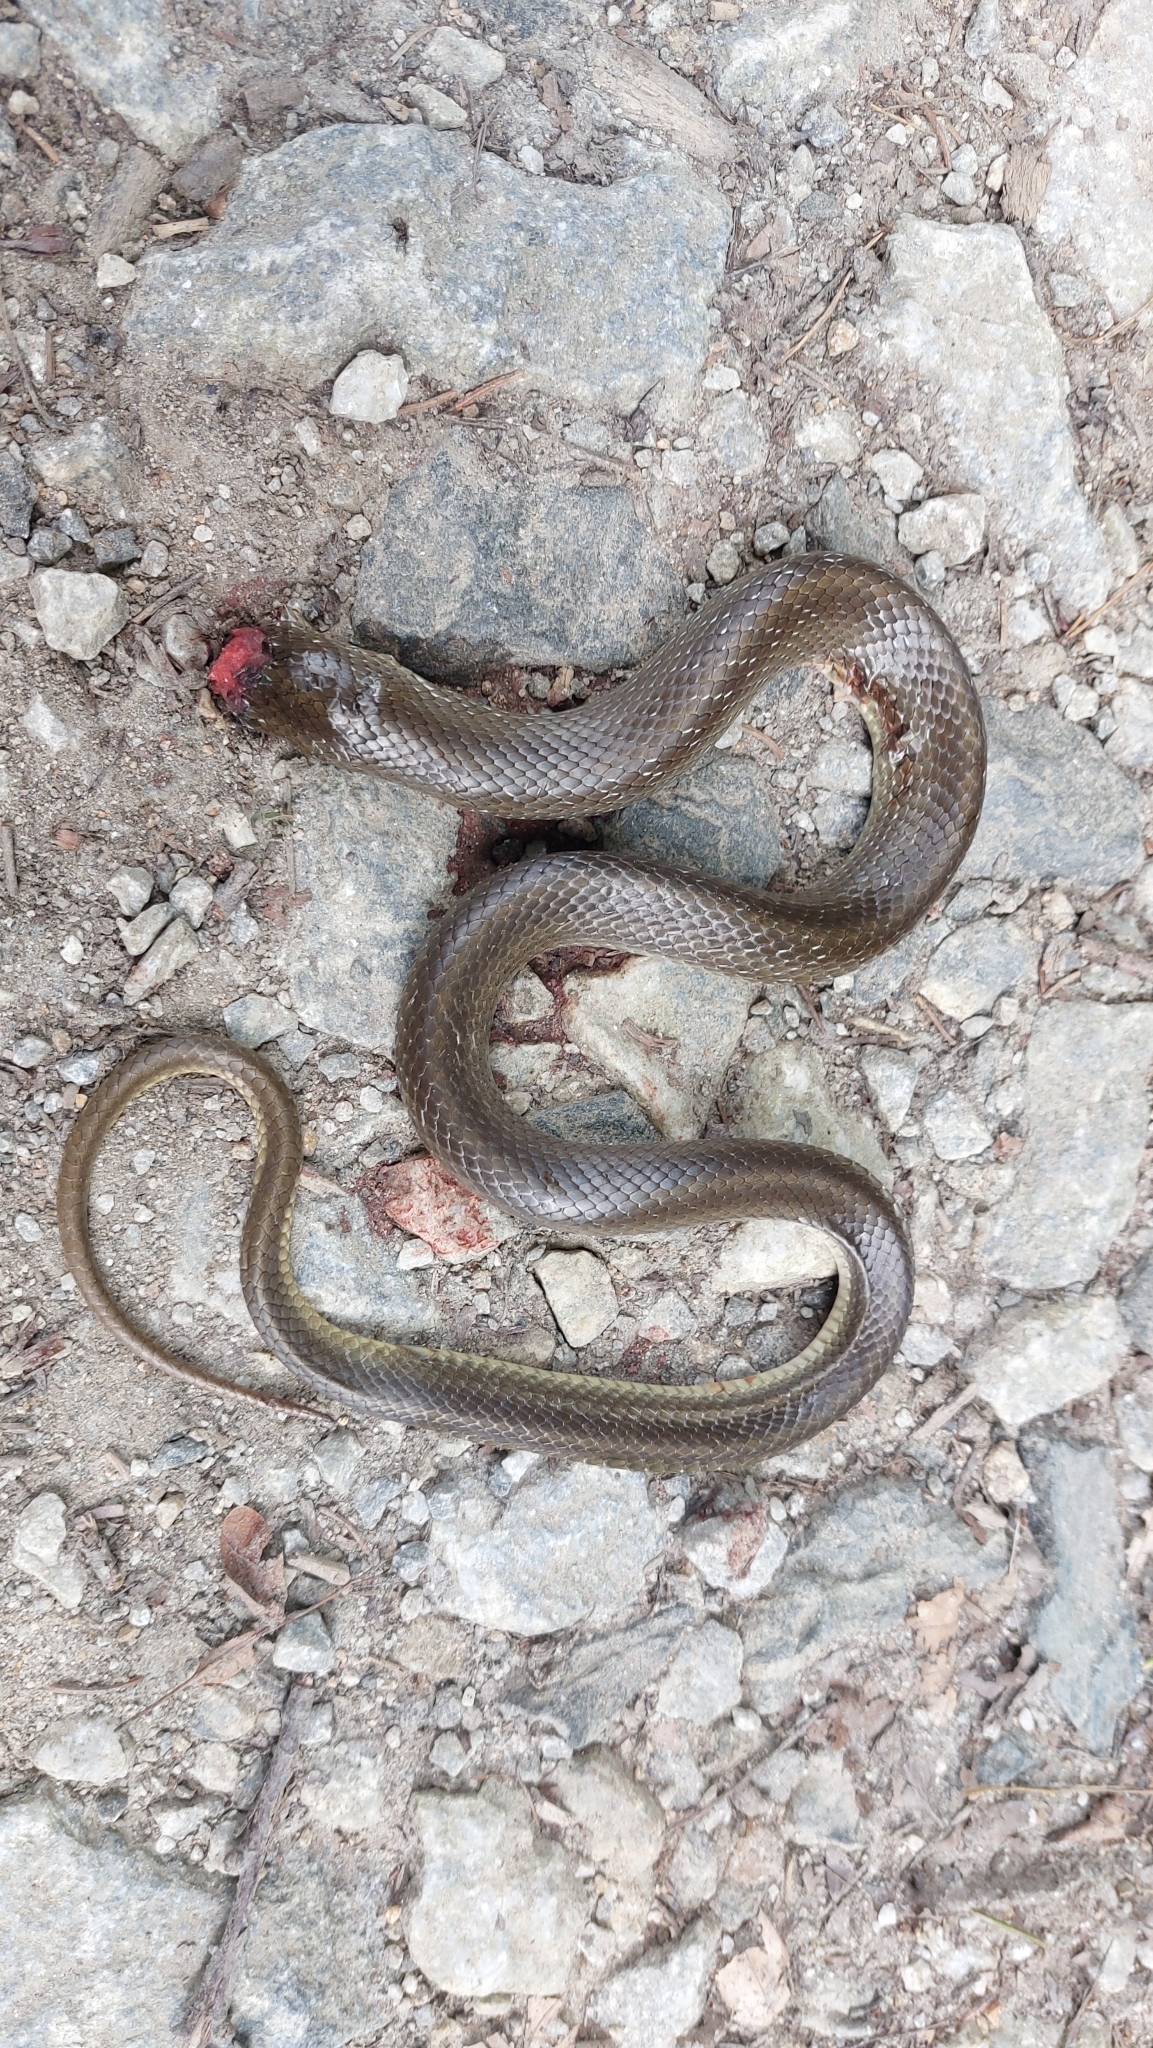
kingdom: Animalia
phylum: Chordata
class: Squamata
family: Colubridae
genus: Zamenis
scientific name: Zamenis longissimus
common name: Aesculapean snake
